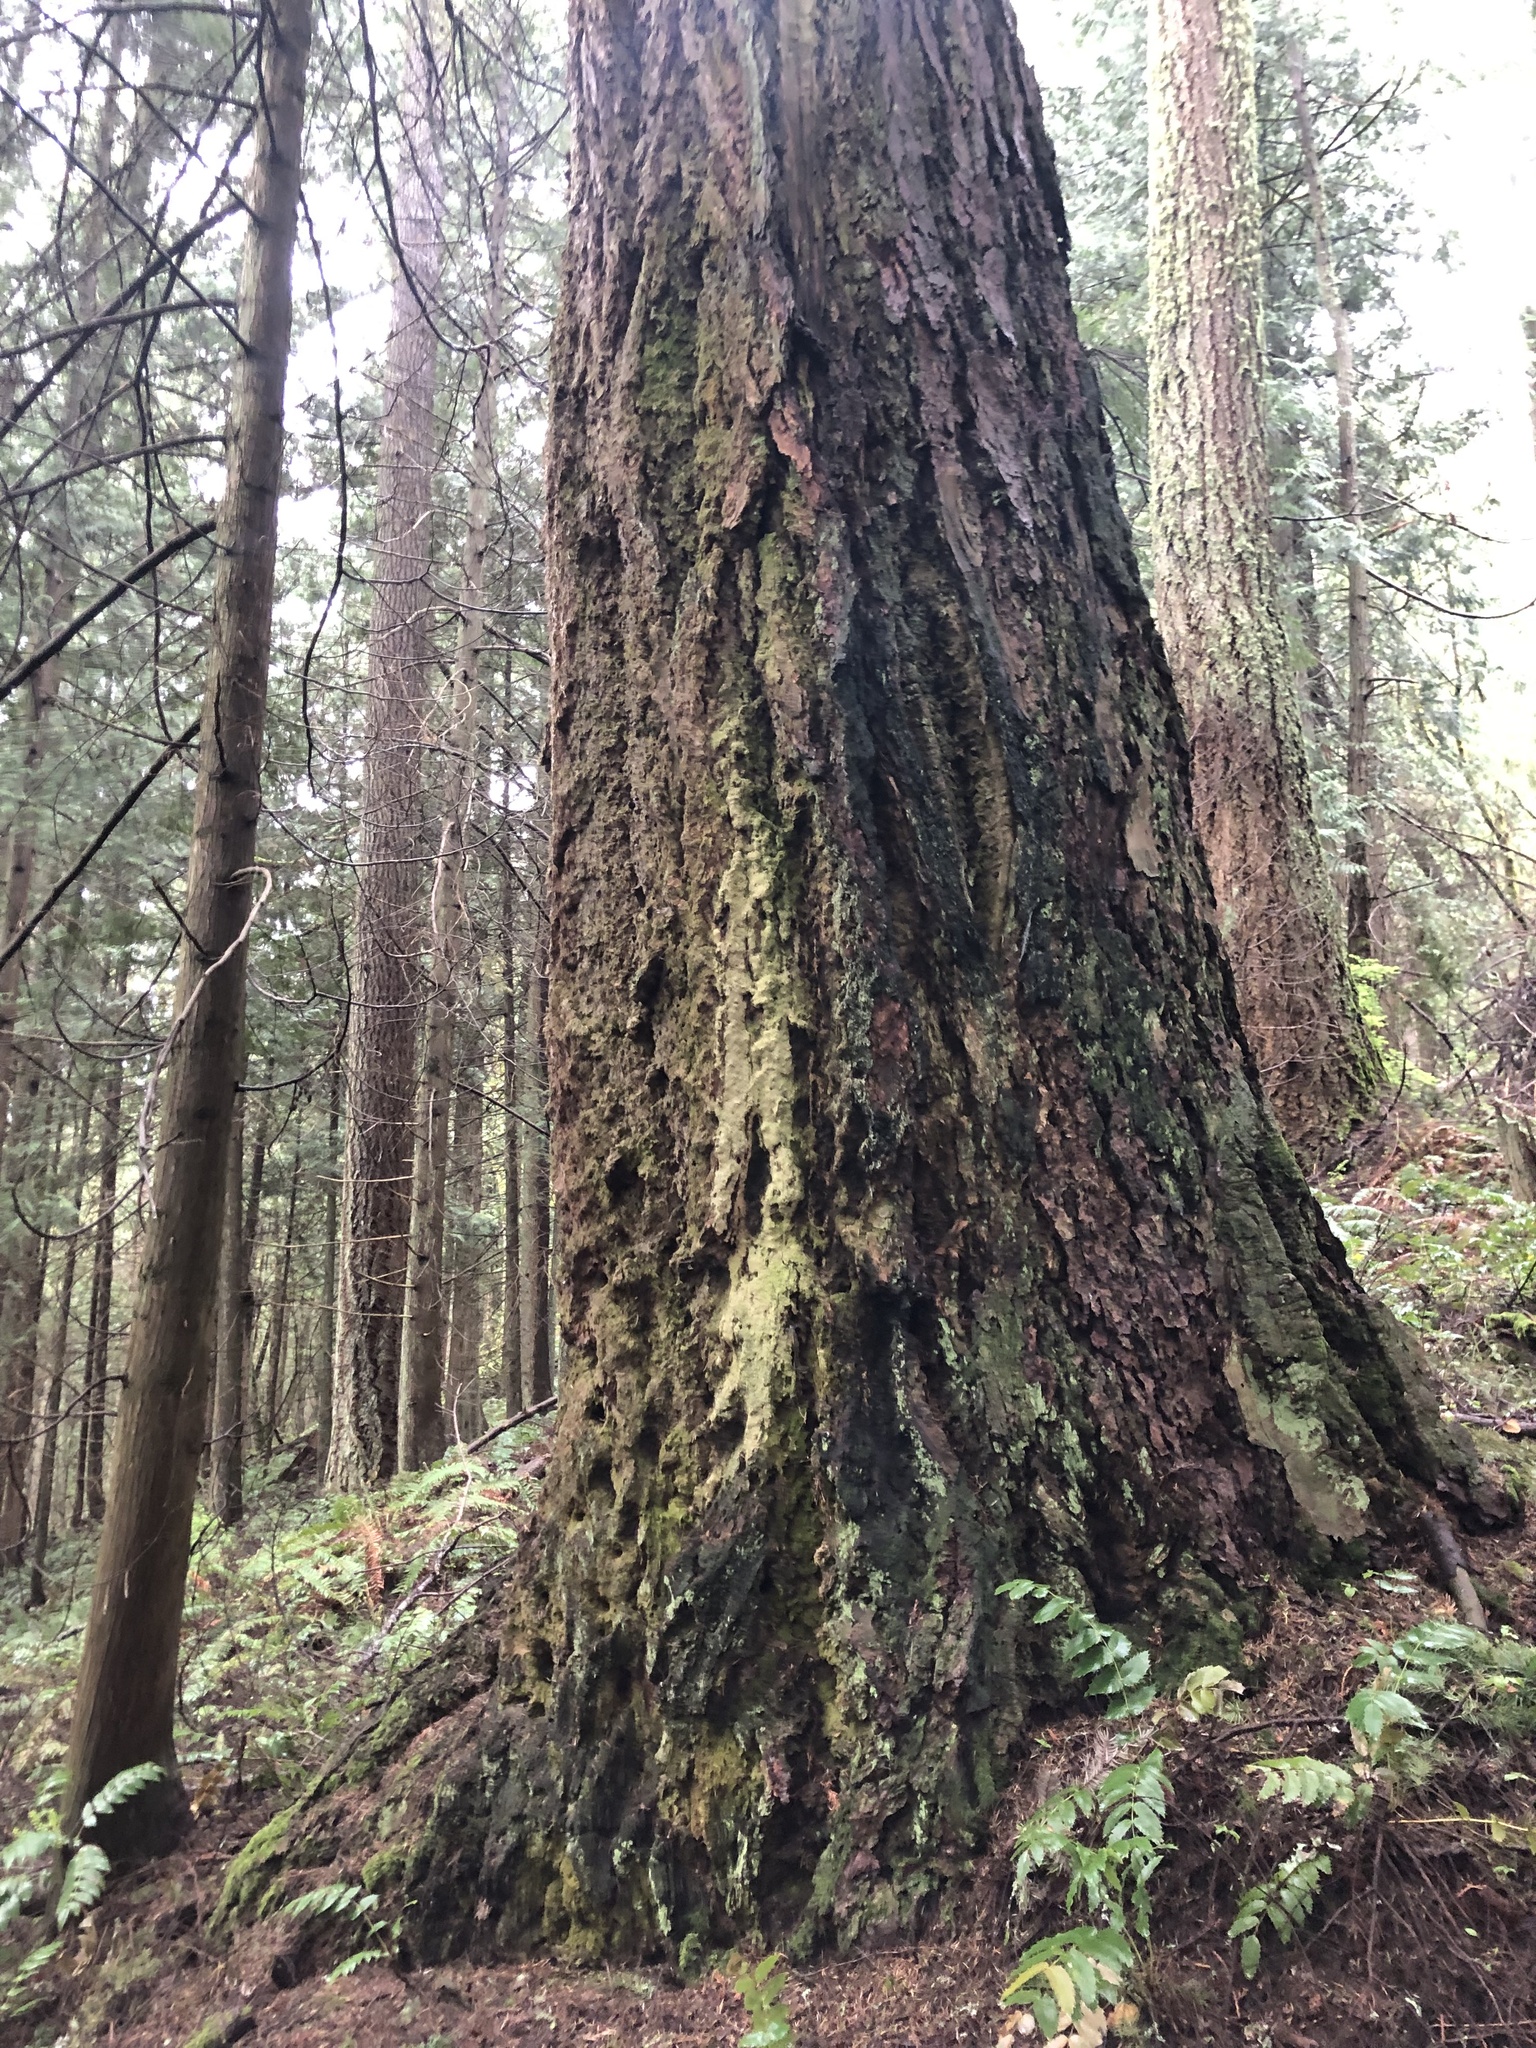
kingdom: Plantae
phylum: Tracheophyta
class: Pinopsida
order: Pinales
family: Pinaceae
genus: Pseudotsuga
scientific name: Pseudotsuga menziesii
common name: Douglas fir
